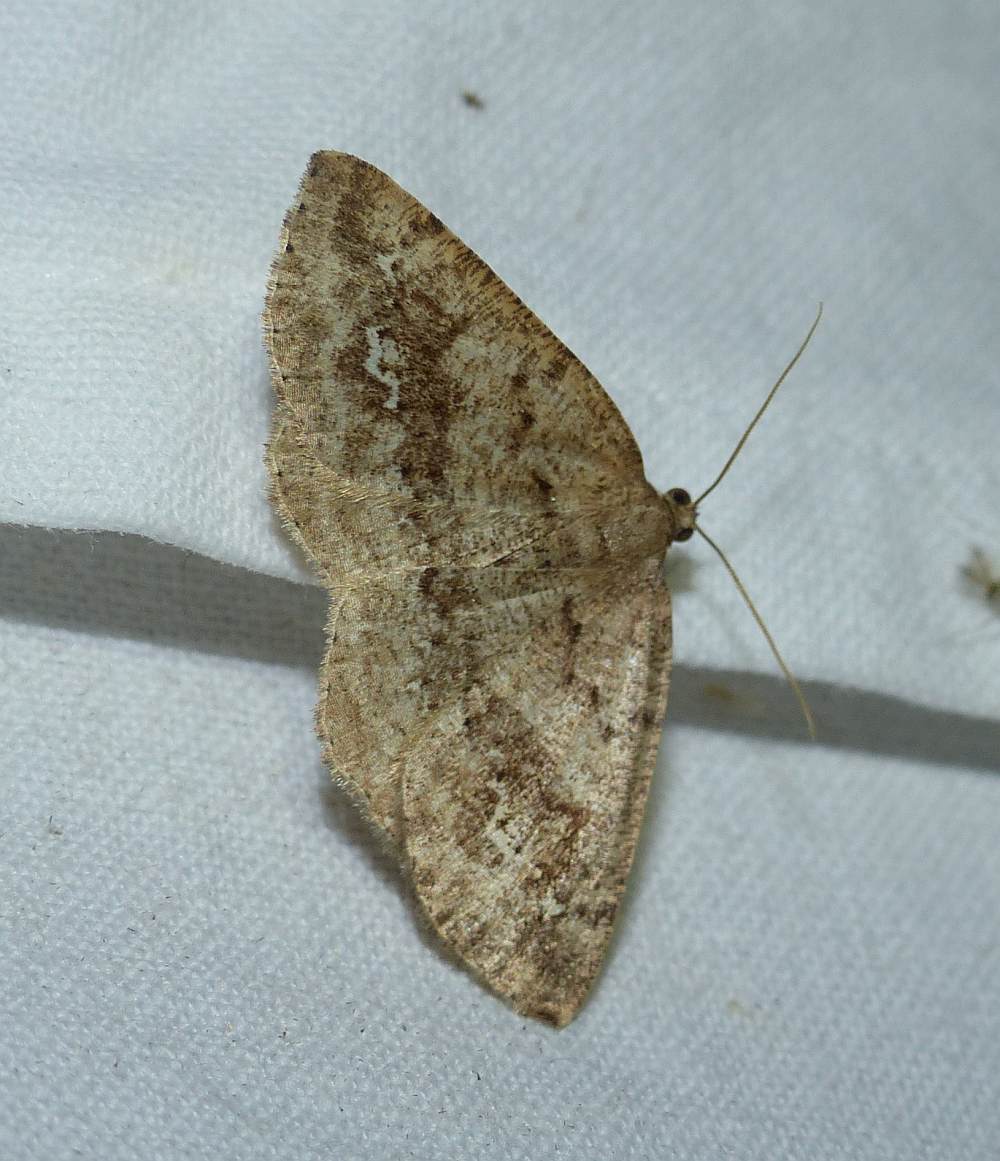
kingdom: Animalia
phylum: Arthropoda
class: Insecta
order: Lepidoptera
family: Geometridae
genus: Homochlodes
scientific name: Homochlodes fritillaria
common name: Pale homochlodes
